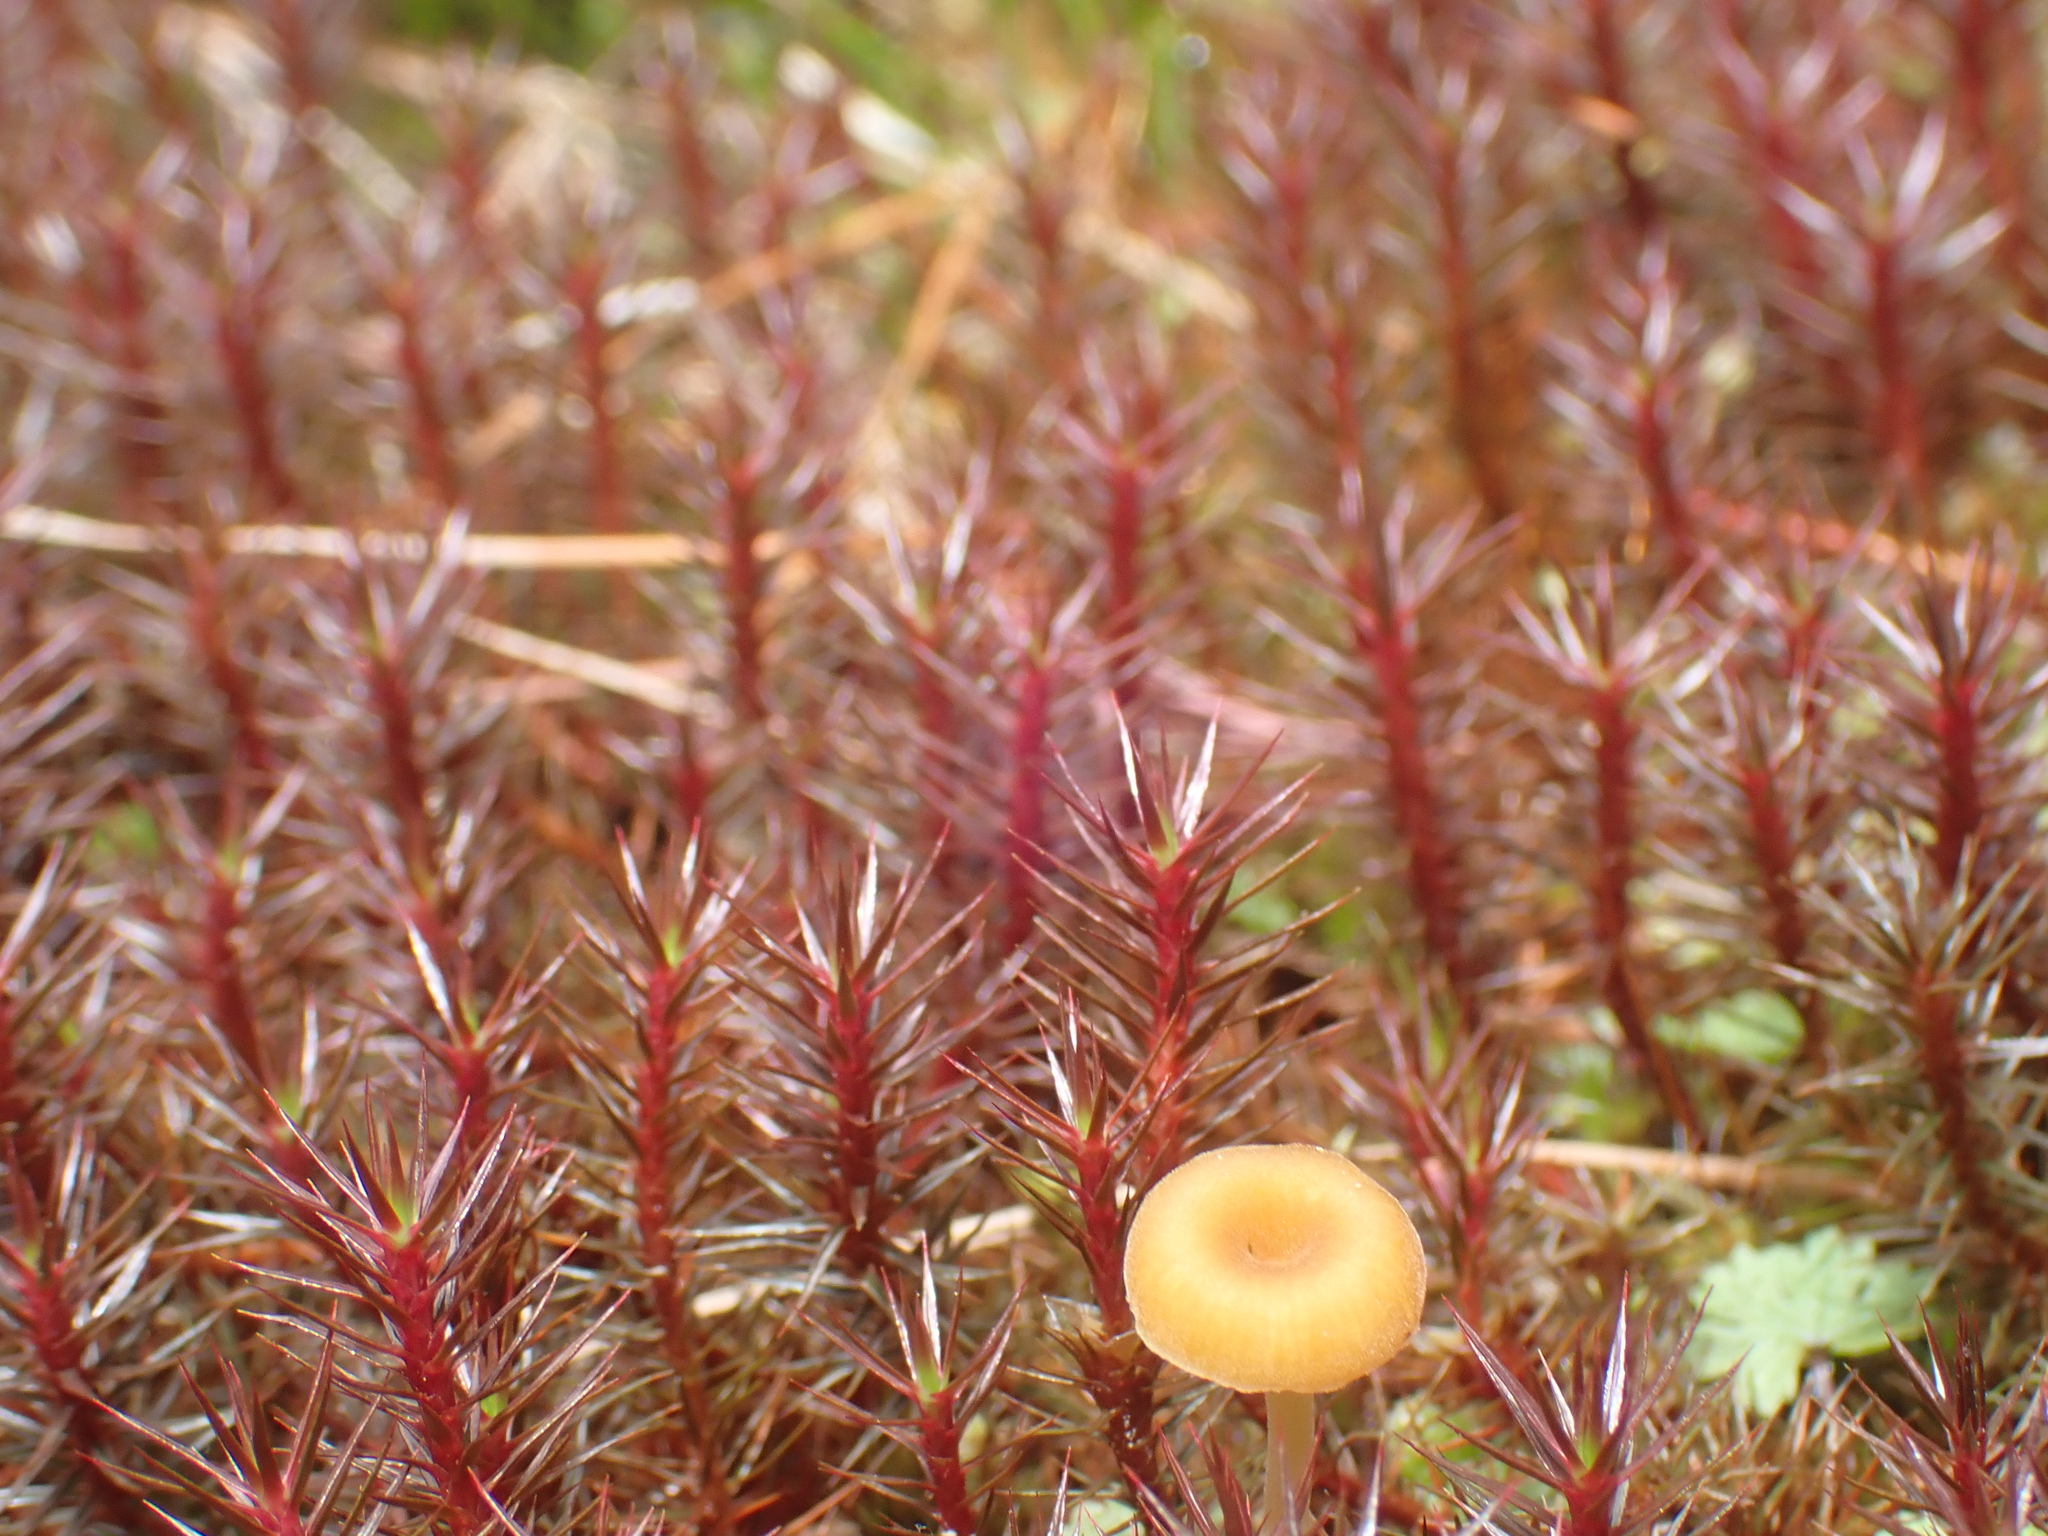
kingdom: Plantae
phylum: Bryophyta
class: Polytrichopsida
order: Polytrichales
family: Polytrichaceae
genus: Polytrichum
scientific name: Polytrichum juniperinum
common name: Juniper haircap moss
